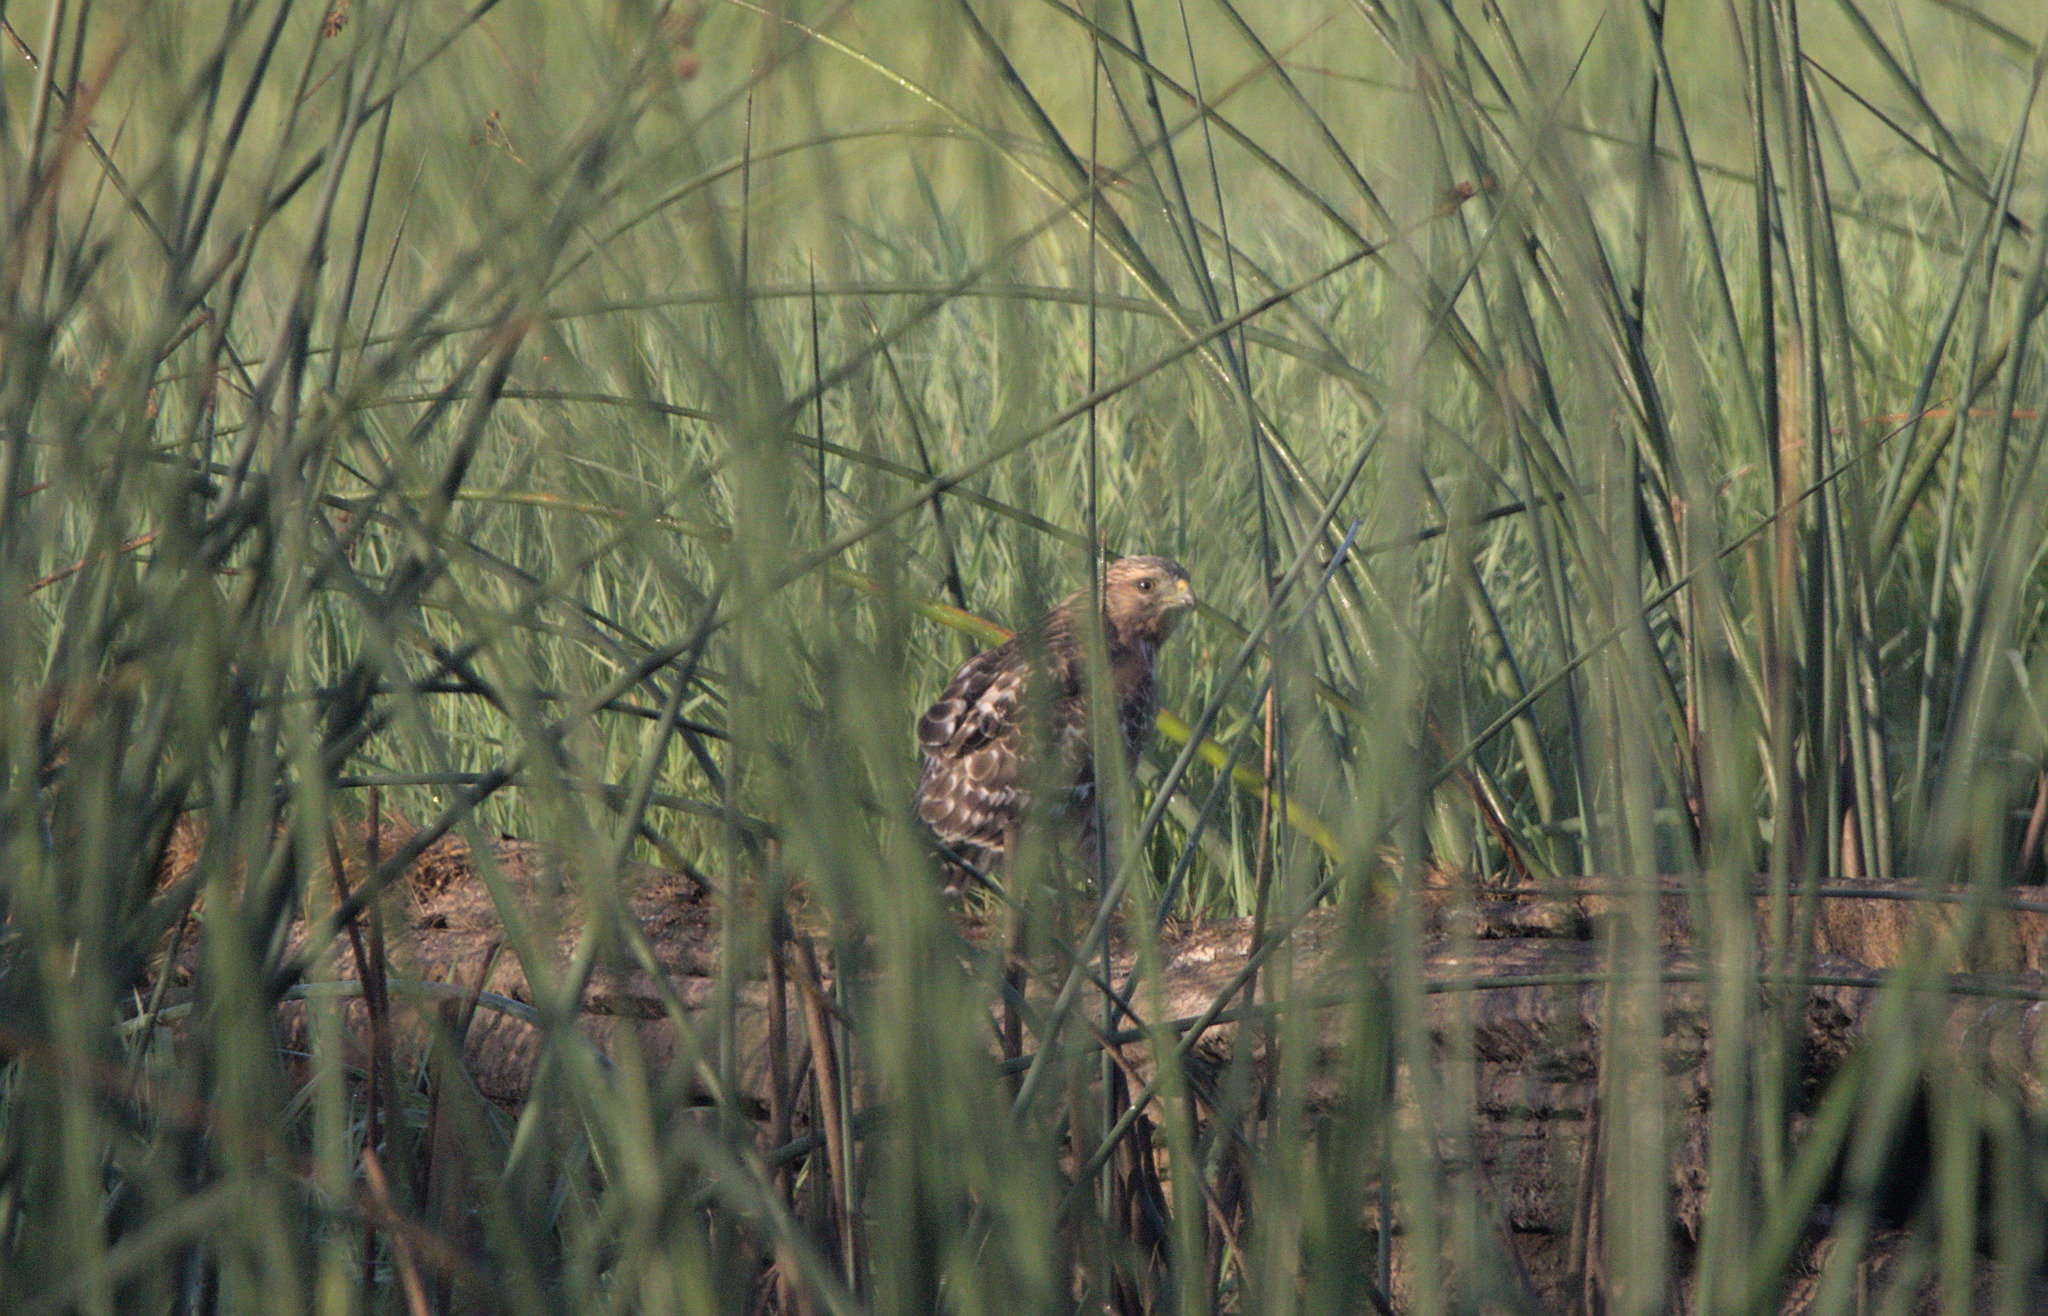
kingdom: Animalia
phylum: Chordata
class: Aves
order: Accipitriformes
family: Accipitridae
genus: Buteo
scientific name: Buteo lineatus
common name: Red-shouldered hawk
